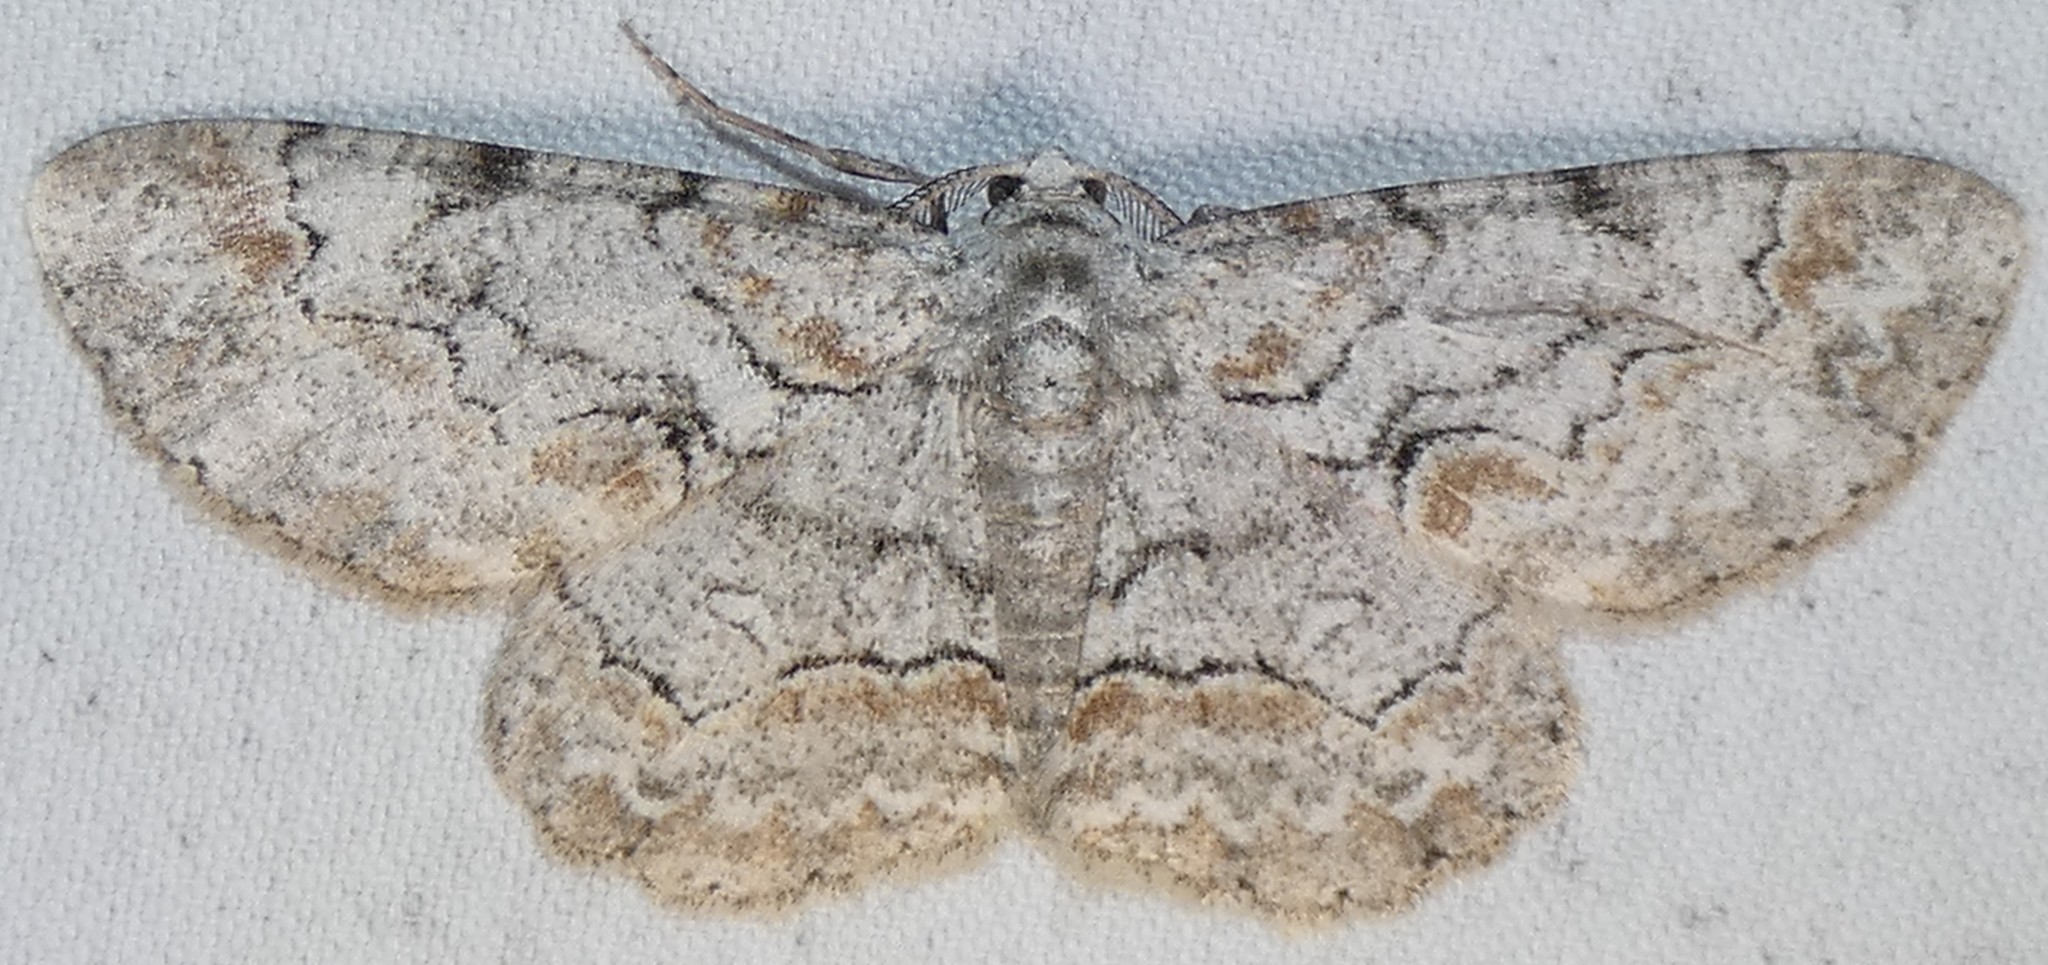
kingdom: Animalia
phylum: Arthropoda
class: Insecta
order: Lepidoptera
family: Geometridae
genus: Iridopsis
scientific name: Iridopsis defectaria
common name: Brown-shaded gray
